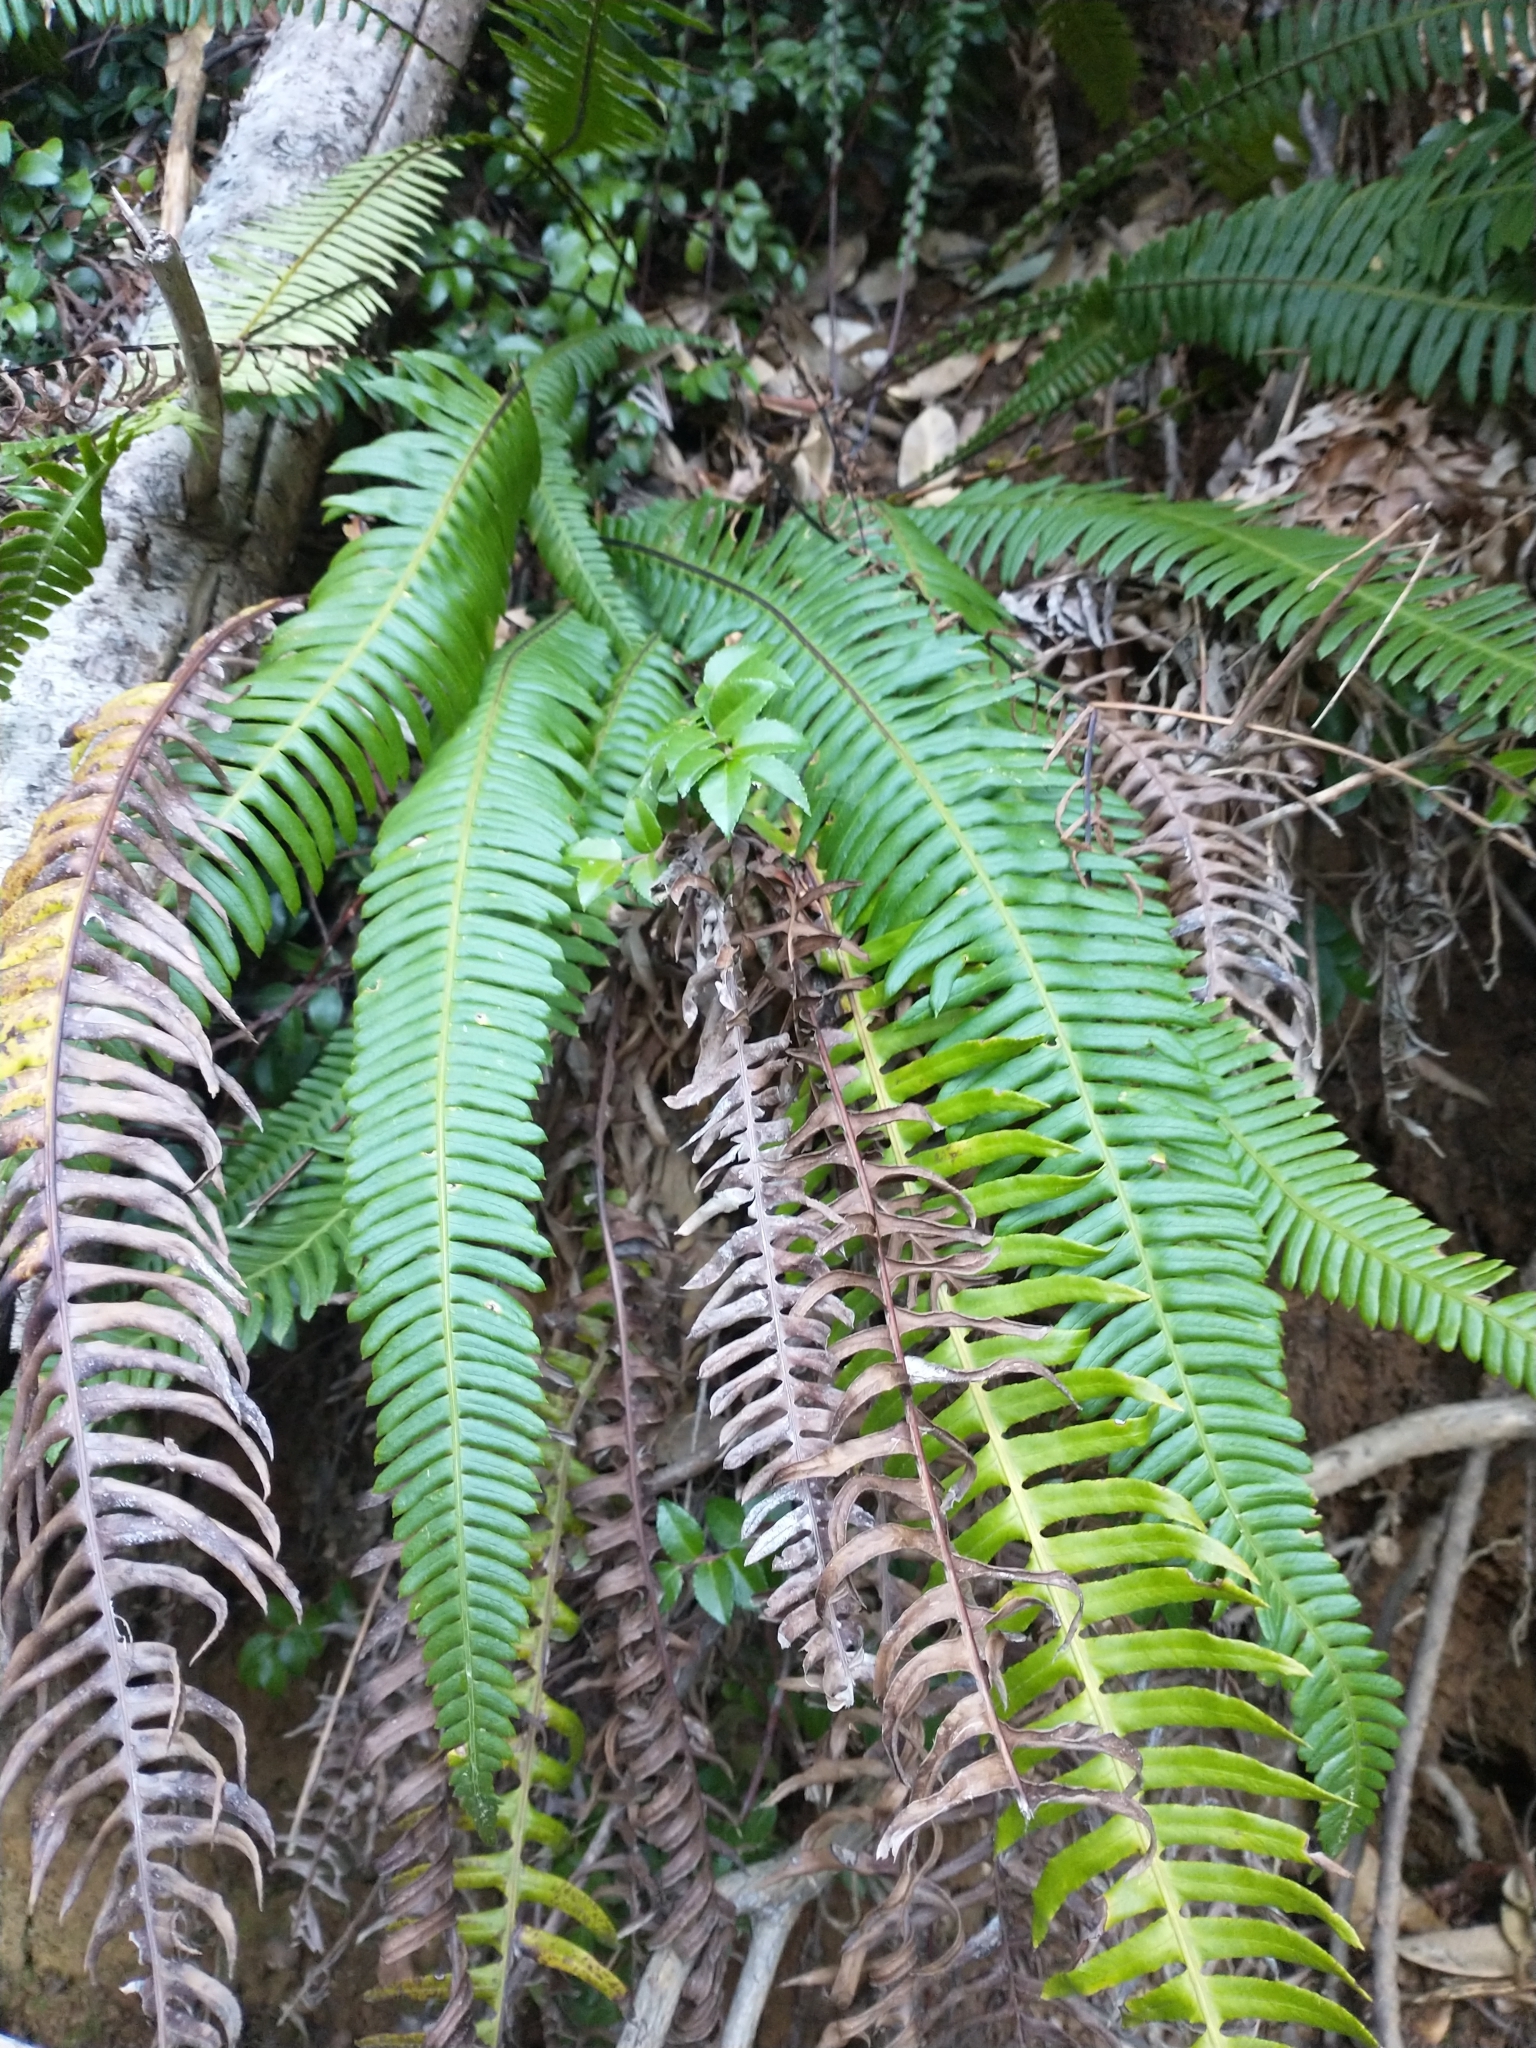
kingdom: Plantae
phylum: Tracheophyta
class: Polypodiopsida
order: Polypodiales
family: Blechnaceae
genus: Struthiopteris
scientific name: Struthiopteris spicant
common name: Deer fern
